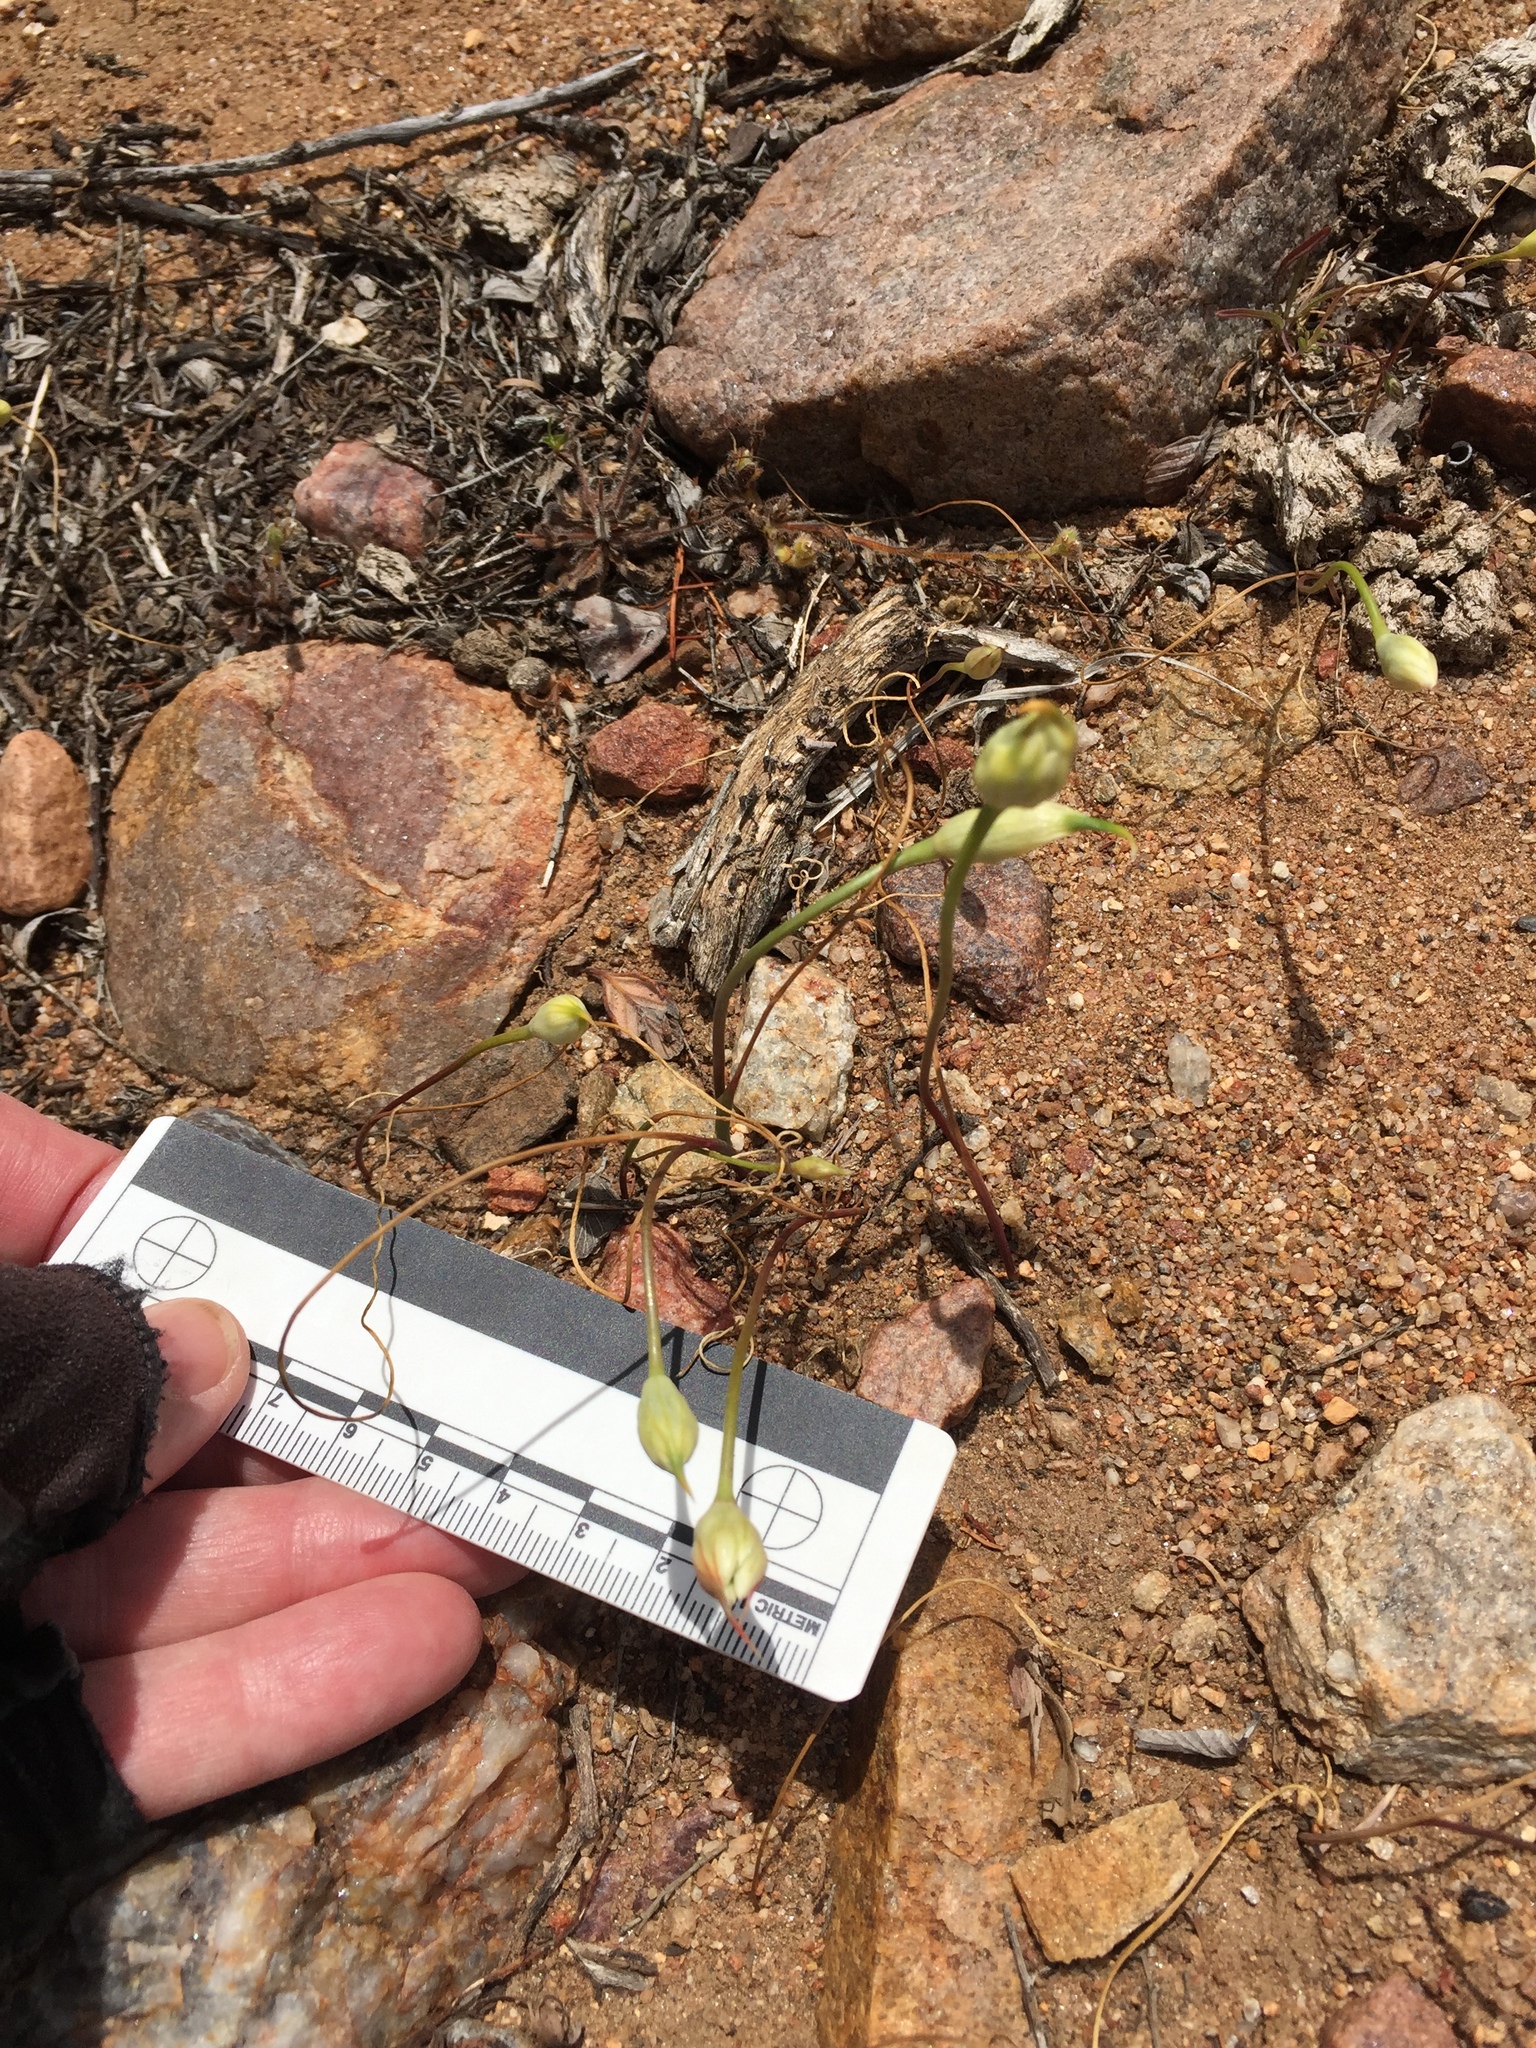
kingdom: Plantae
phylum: Tracheophyta
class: Liliopsida
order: Asparagales
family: Amaryllidaceae
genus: Allium
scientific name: Allium parryi
